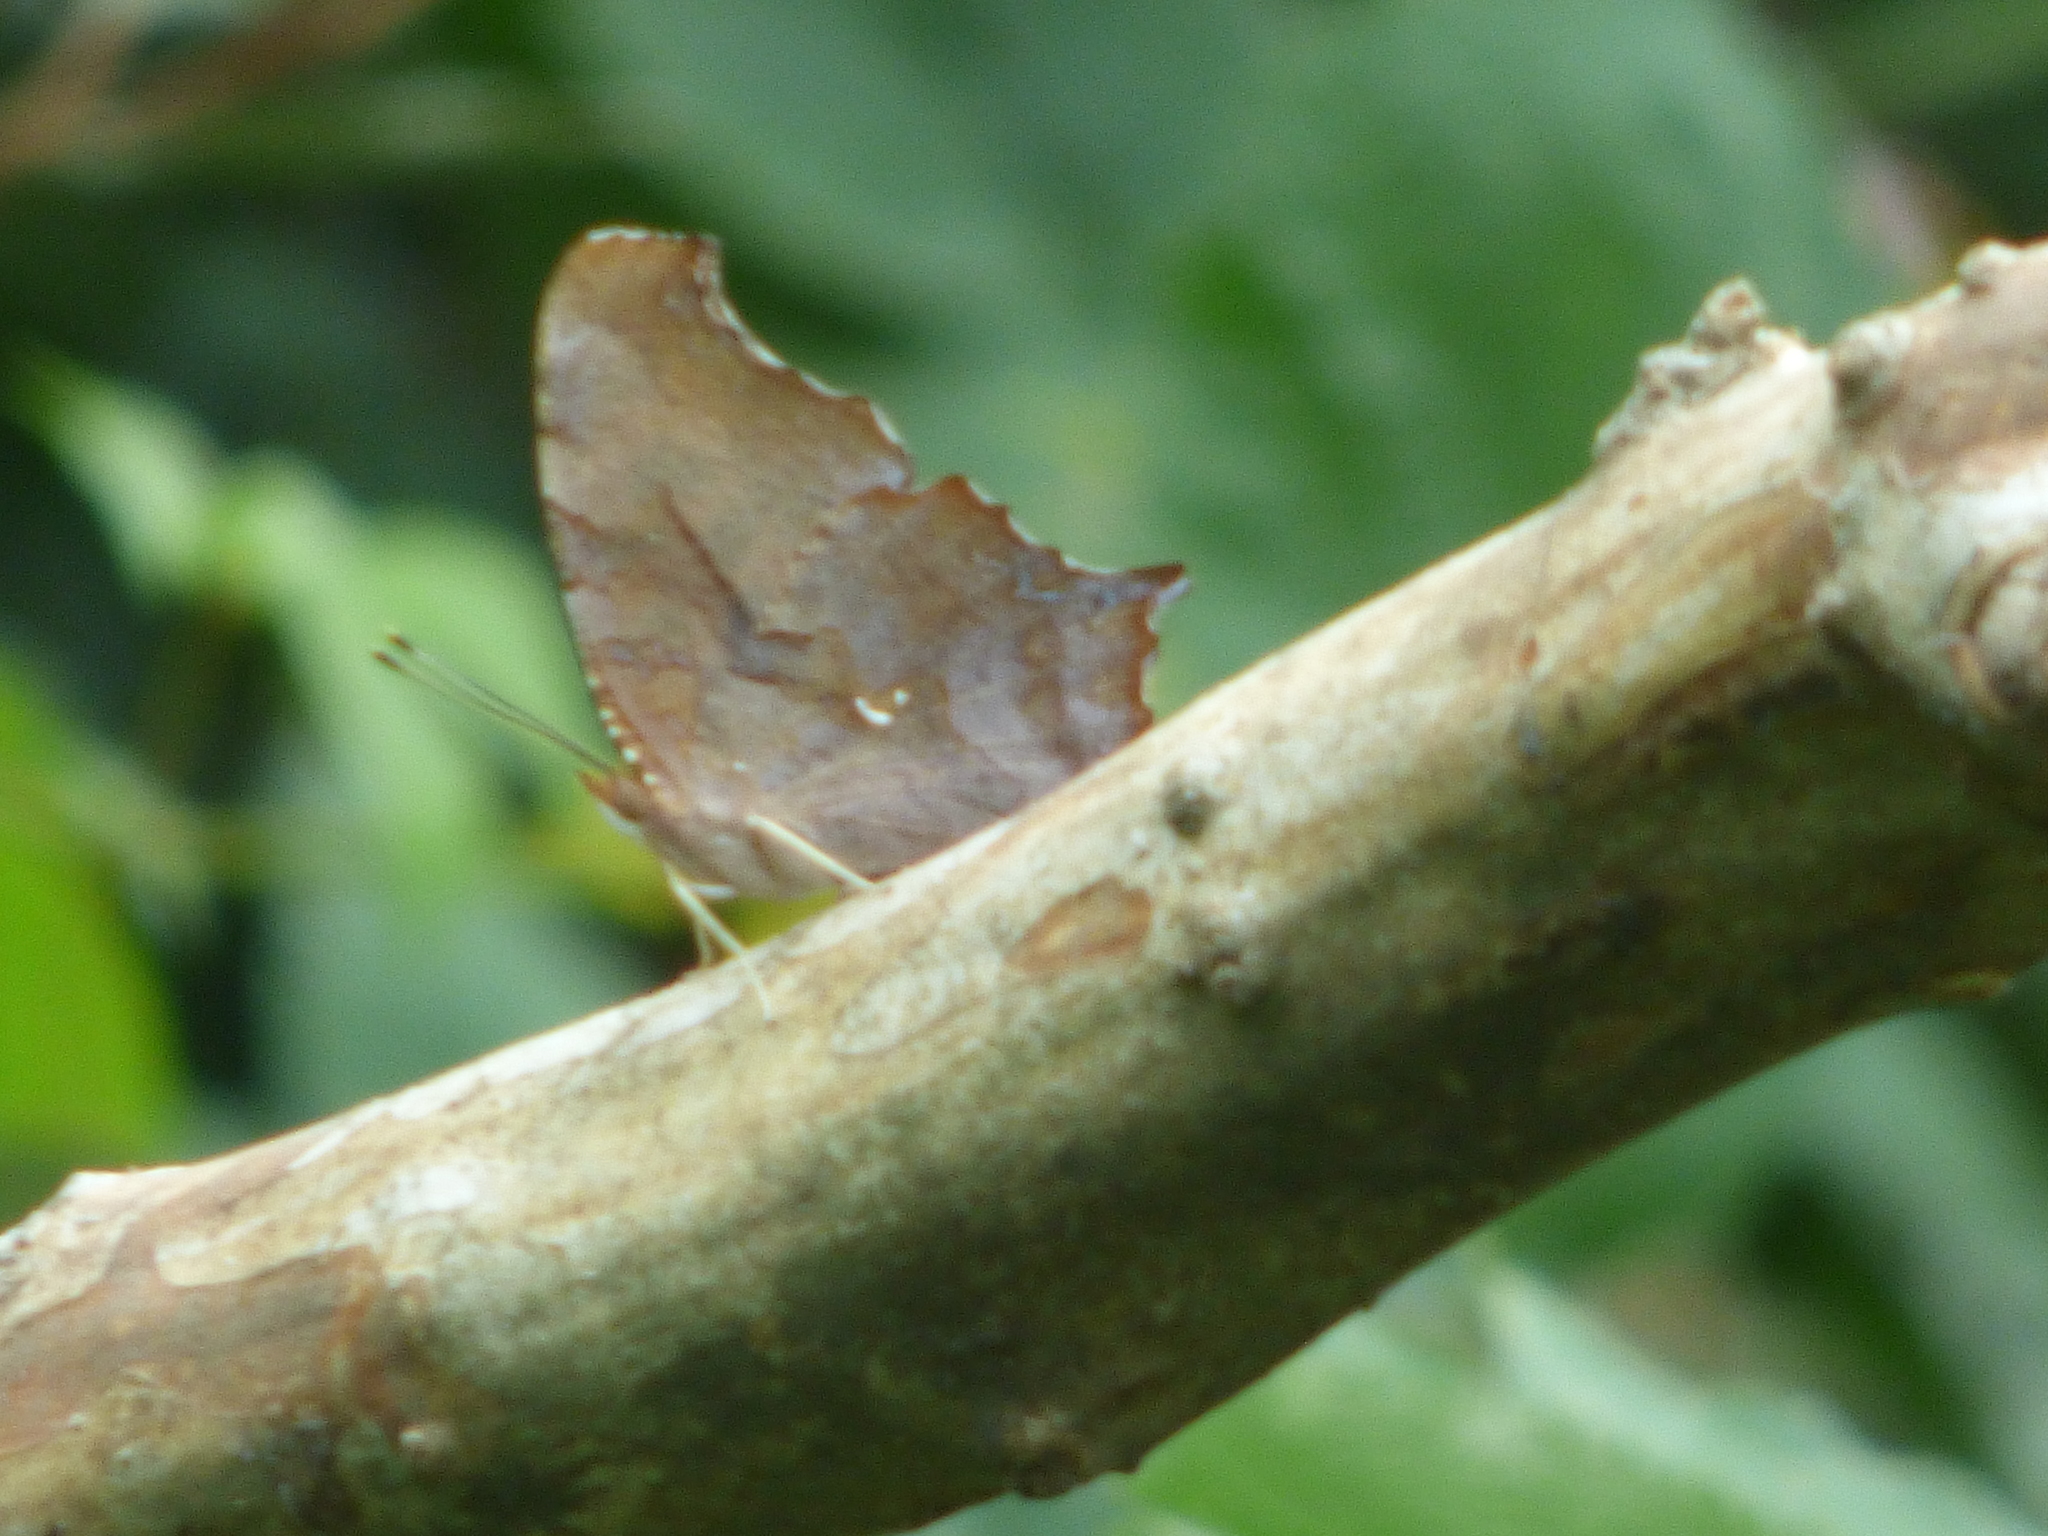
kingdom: Animalia
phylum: Arthropoda
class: Insecta
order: Lepidoptera
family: Nymphalidae
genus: Polygonia
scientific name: Polygonia interrogationis
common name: Question mark
